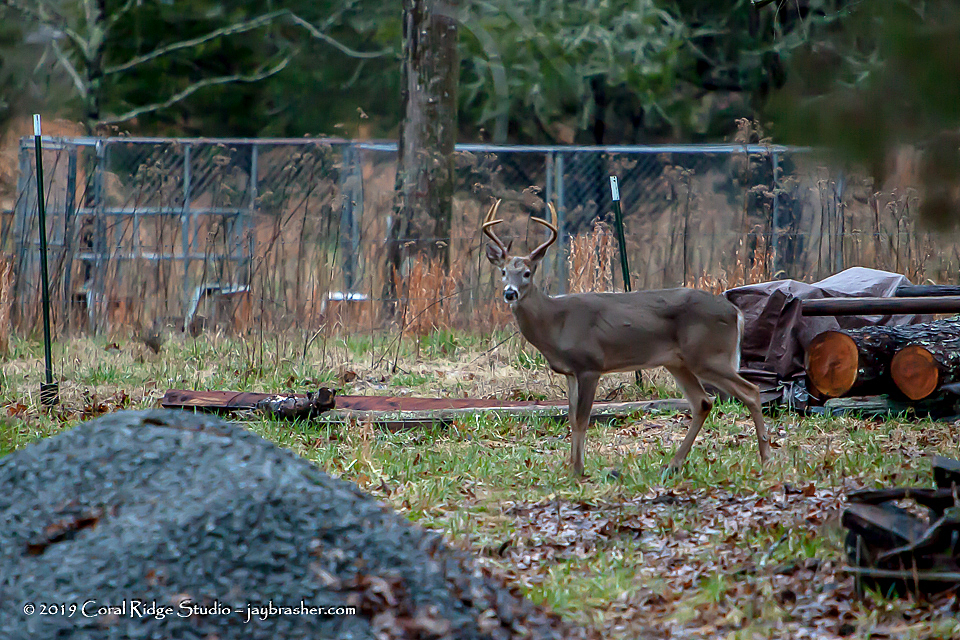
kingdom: Animalia
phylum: Chordata
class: Mammalia
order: Artiodactyla
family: Cervidae
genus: Odocoileus
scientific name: Odocoileus virginianus
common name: White-tailed deer
